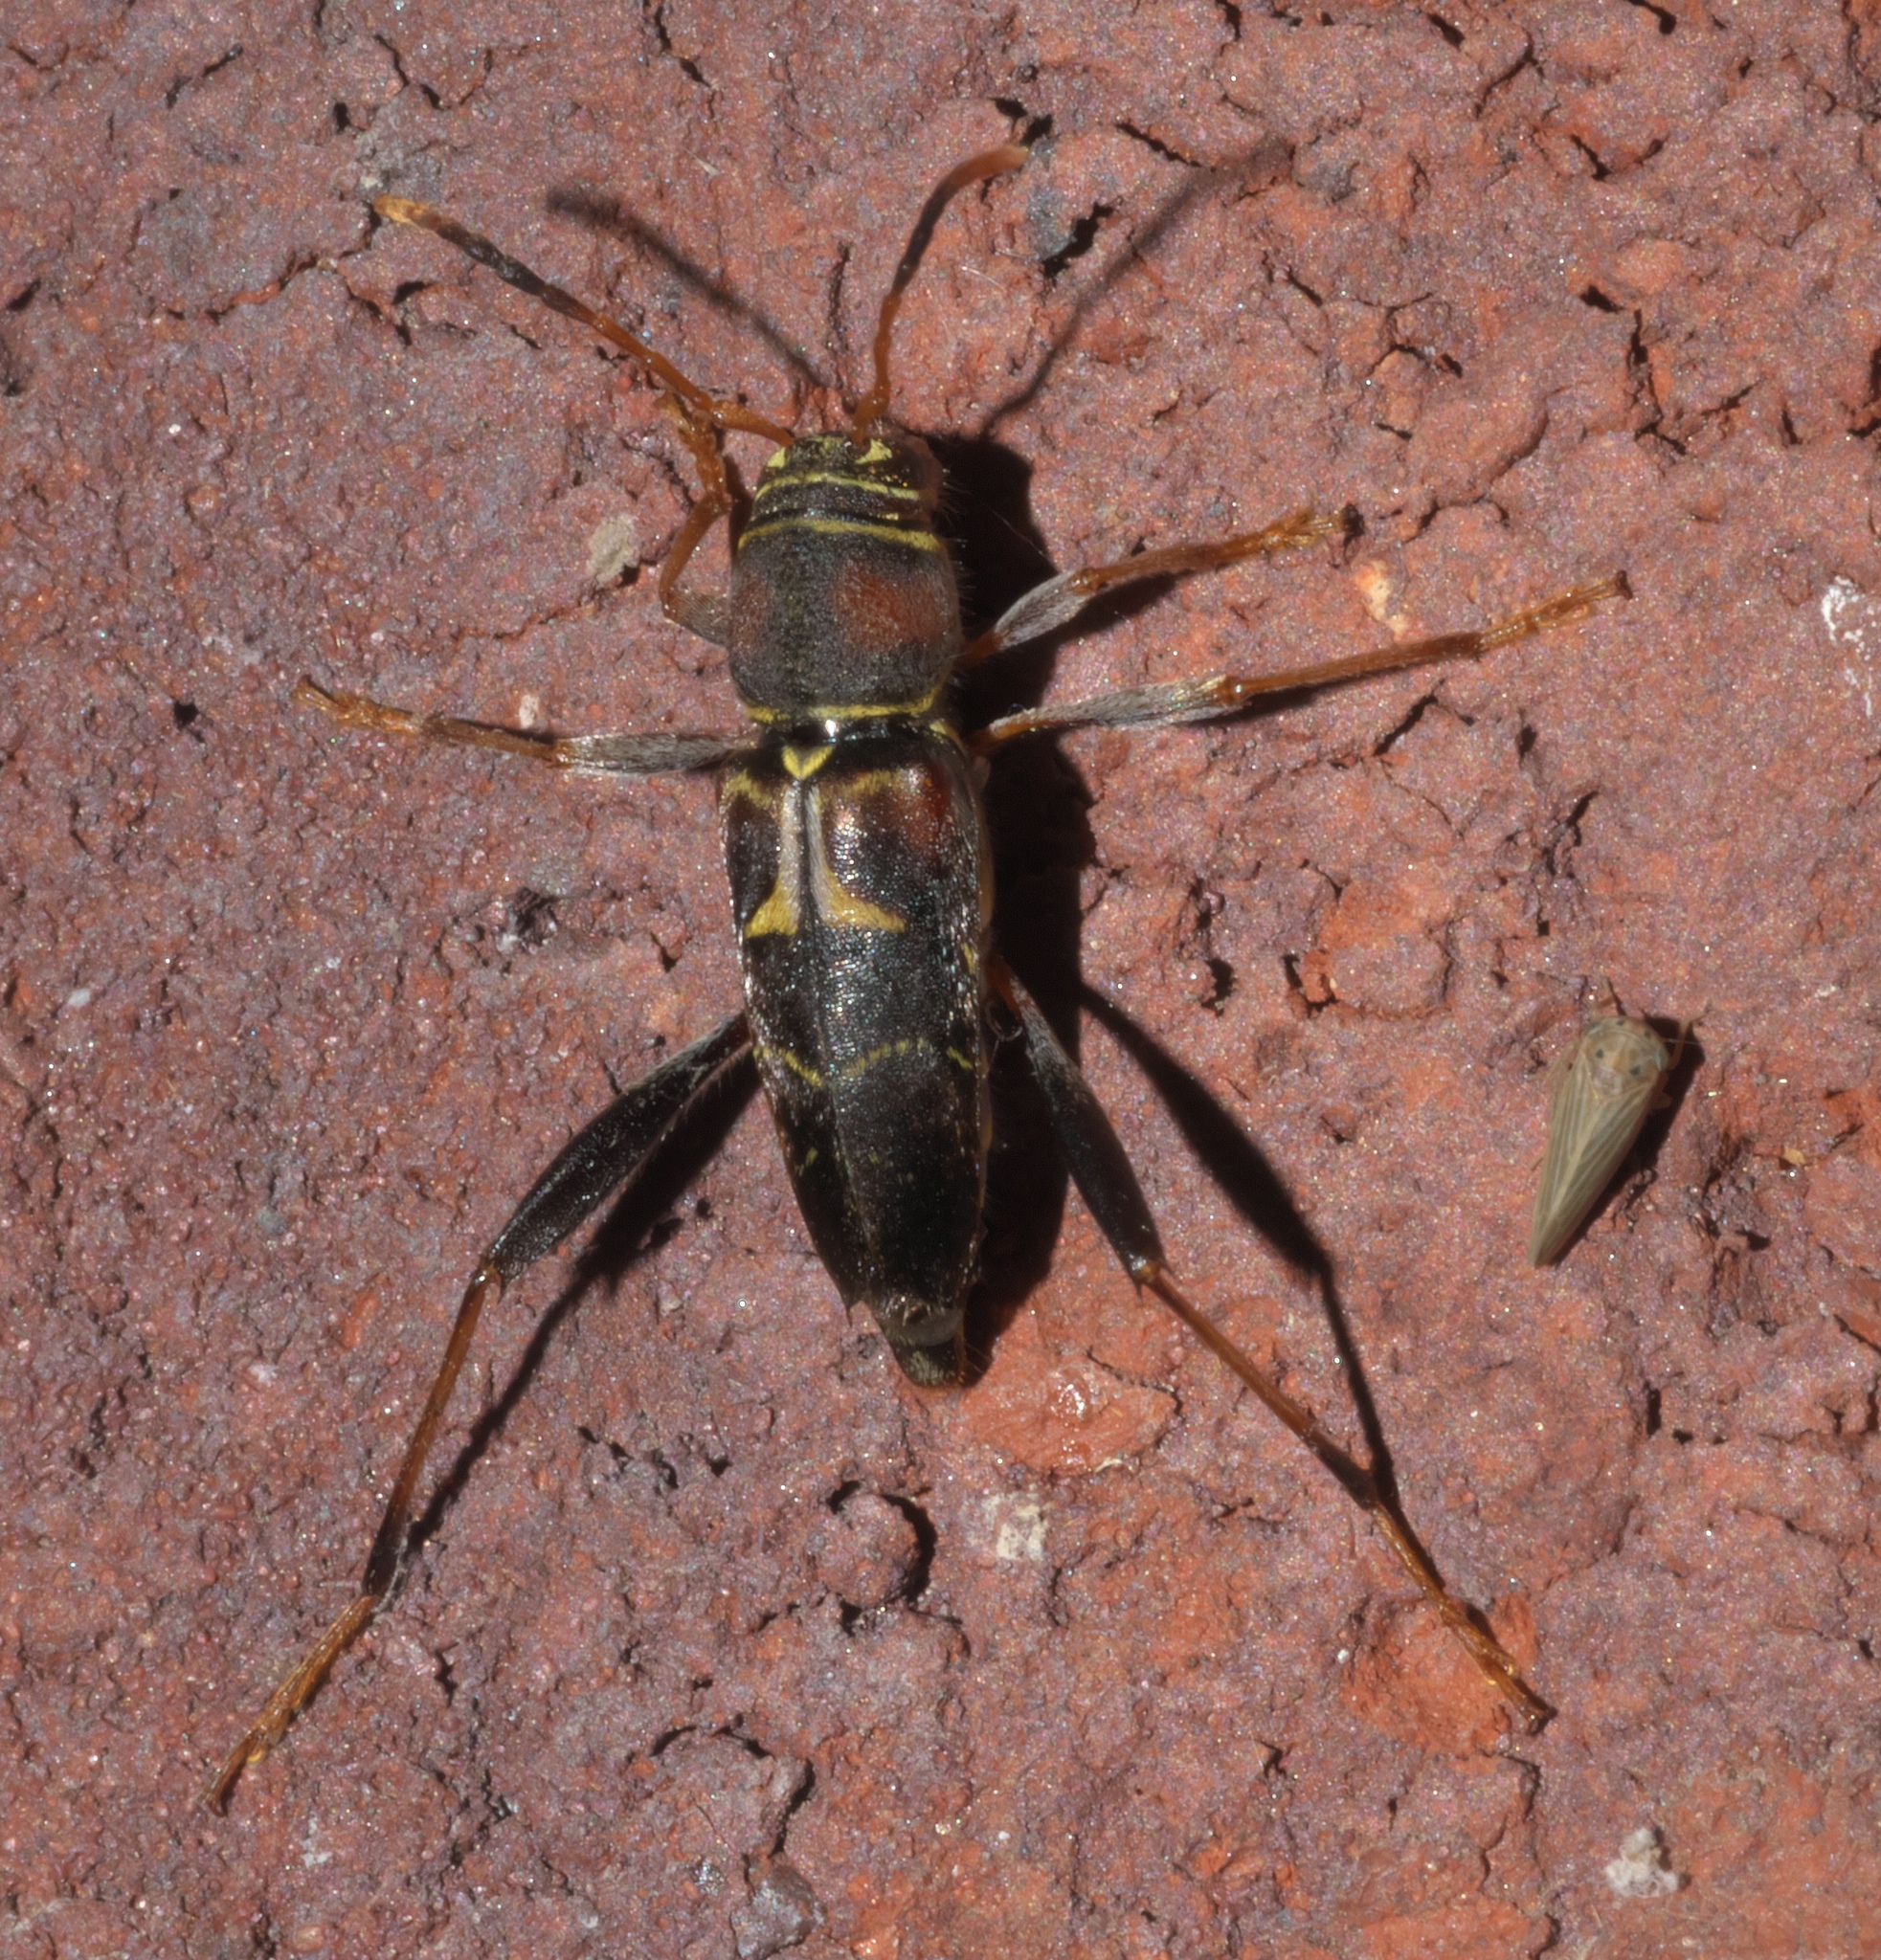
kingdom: Animalia
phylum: Arthropoda
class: Insecta
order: Coleoptera
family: Cerambycidae
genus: Neoclytus
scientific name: Neoclytus mucronatus
